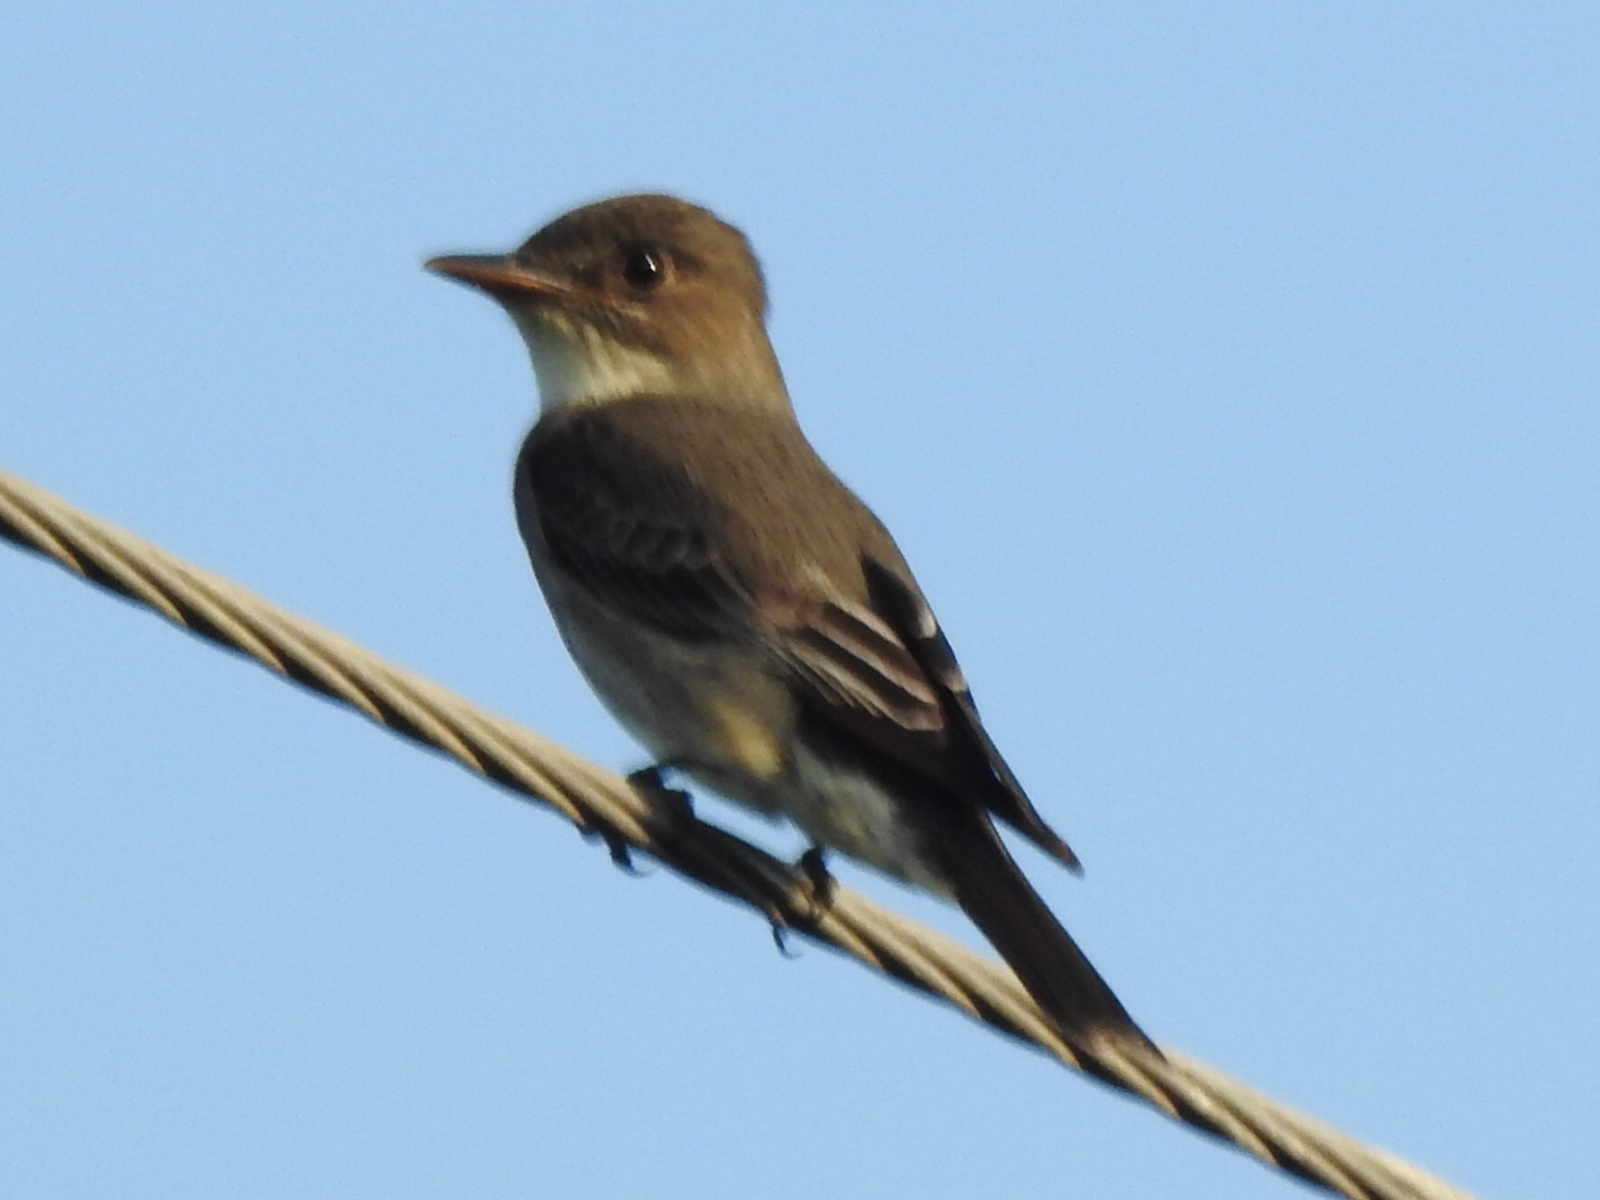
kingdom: Animalia
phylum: Chordata
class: Aves
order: Passeriformes
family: Tyrannidae
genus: Contopus
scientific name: Contopus cooperi
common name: Olive-sided flycatcher
